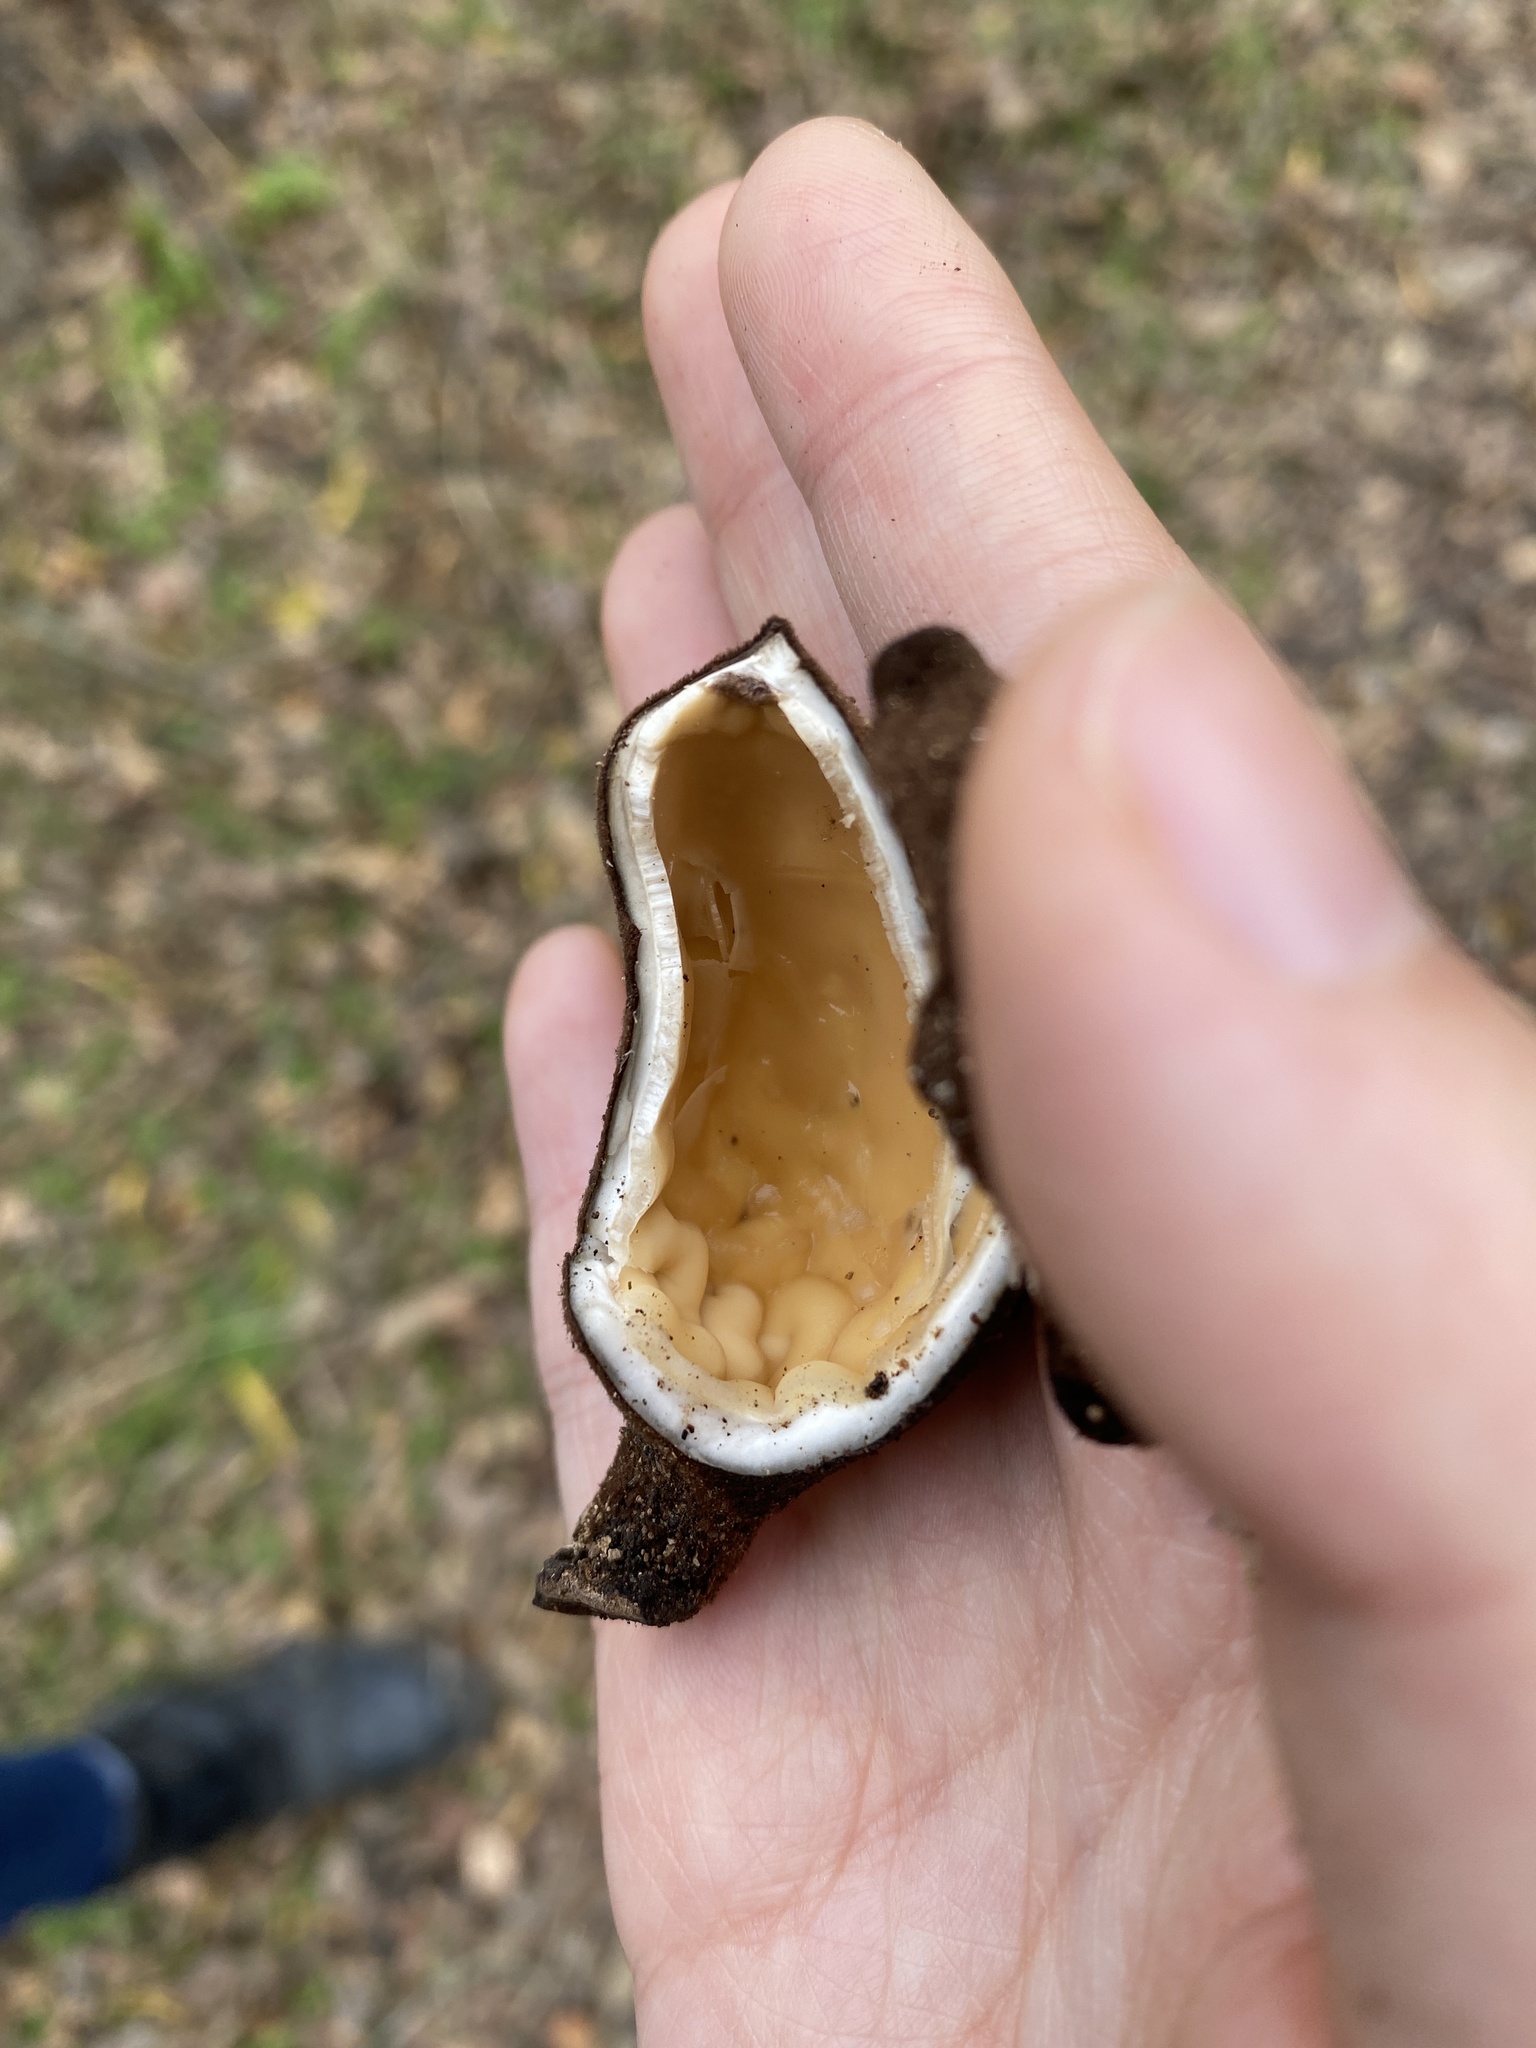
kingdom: Fungi
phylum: Ascomycota
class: Pezizomycetes
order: Pezizales
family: Chorioactidaceae
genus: Chorioactis
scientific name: Chorioactis geaster
